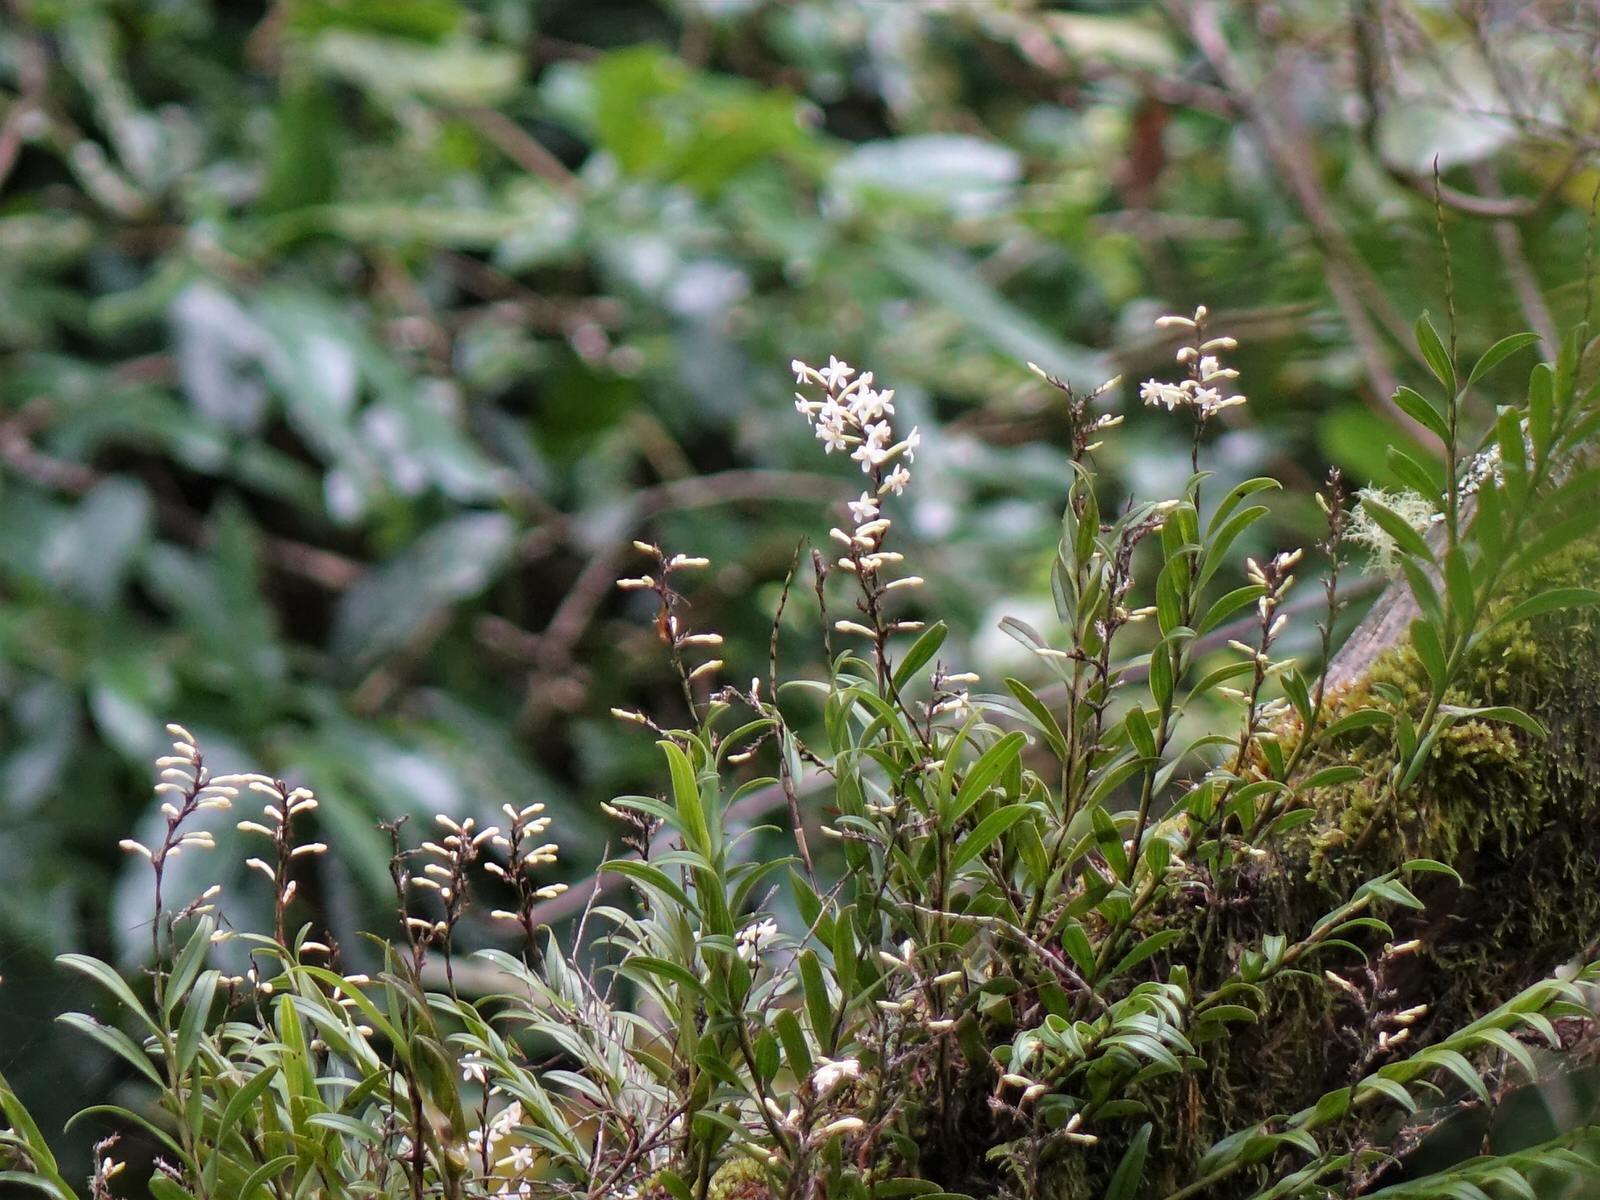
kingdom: Plantae
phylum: Tracheophyta
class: Liliopsida
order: Asparagales
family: Orchidaceae
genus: Earina
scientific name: Earina autumnalis
